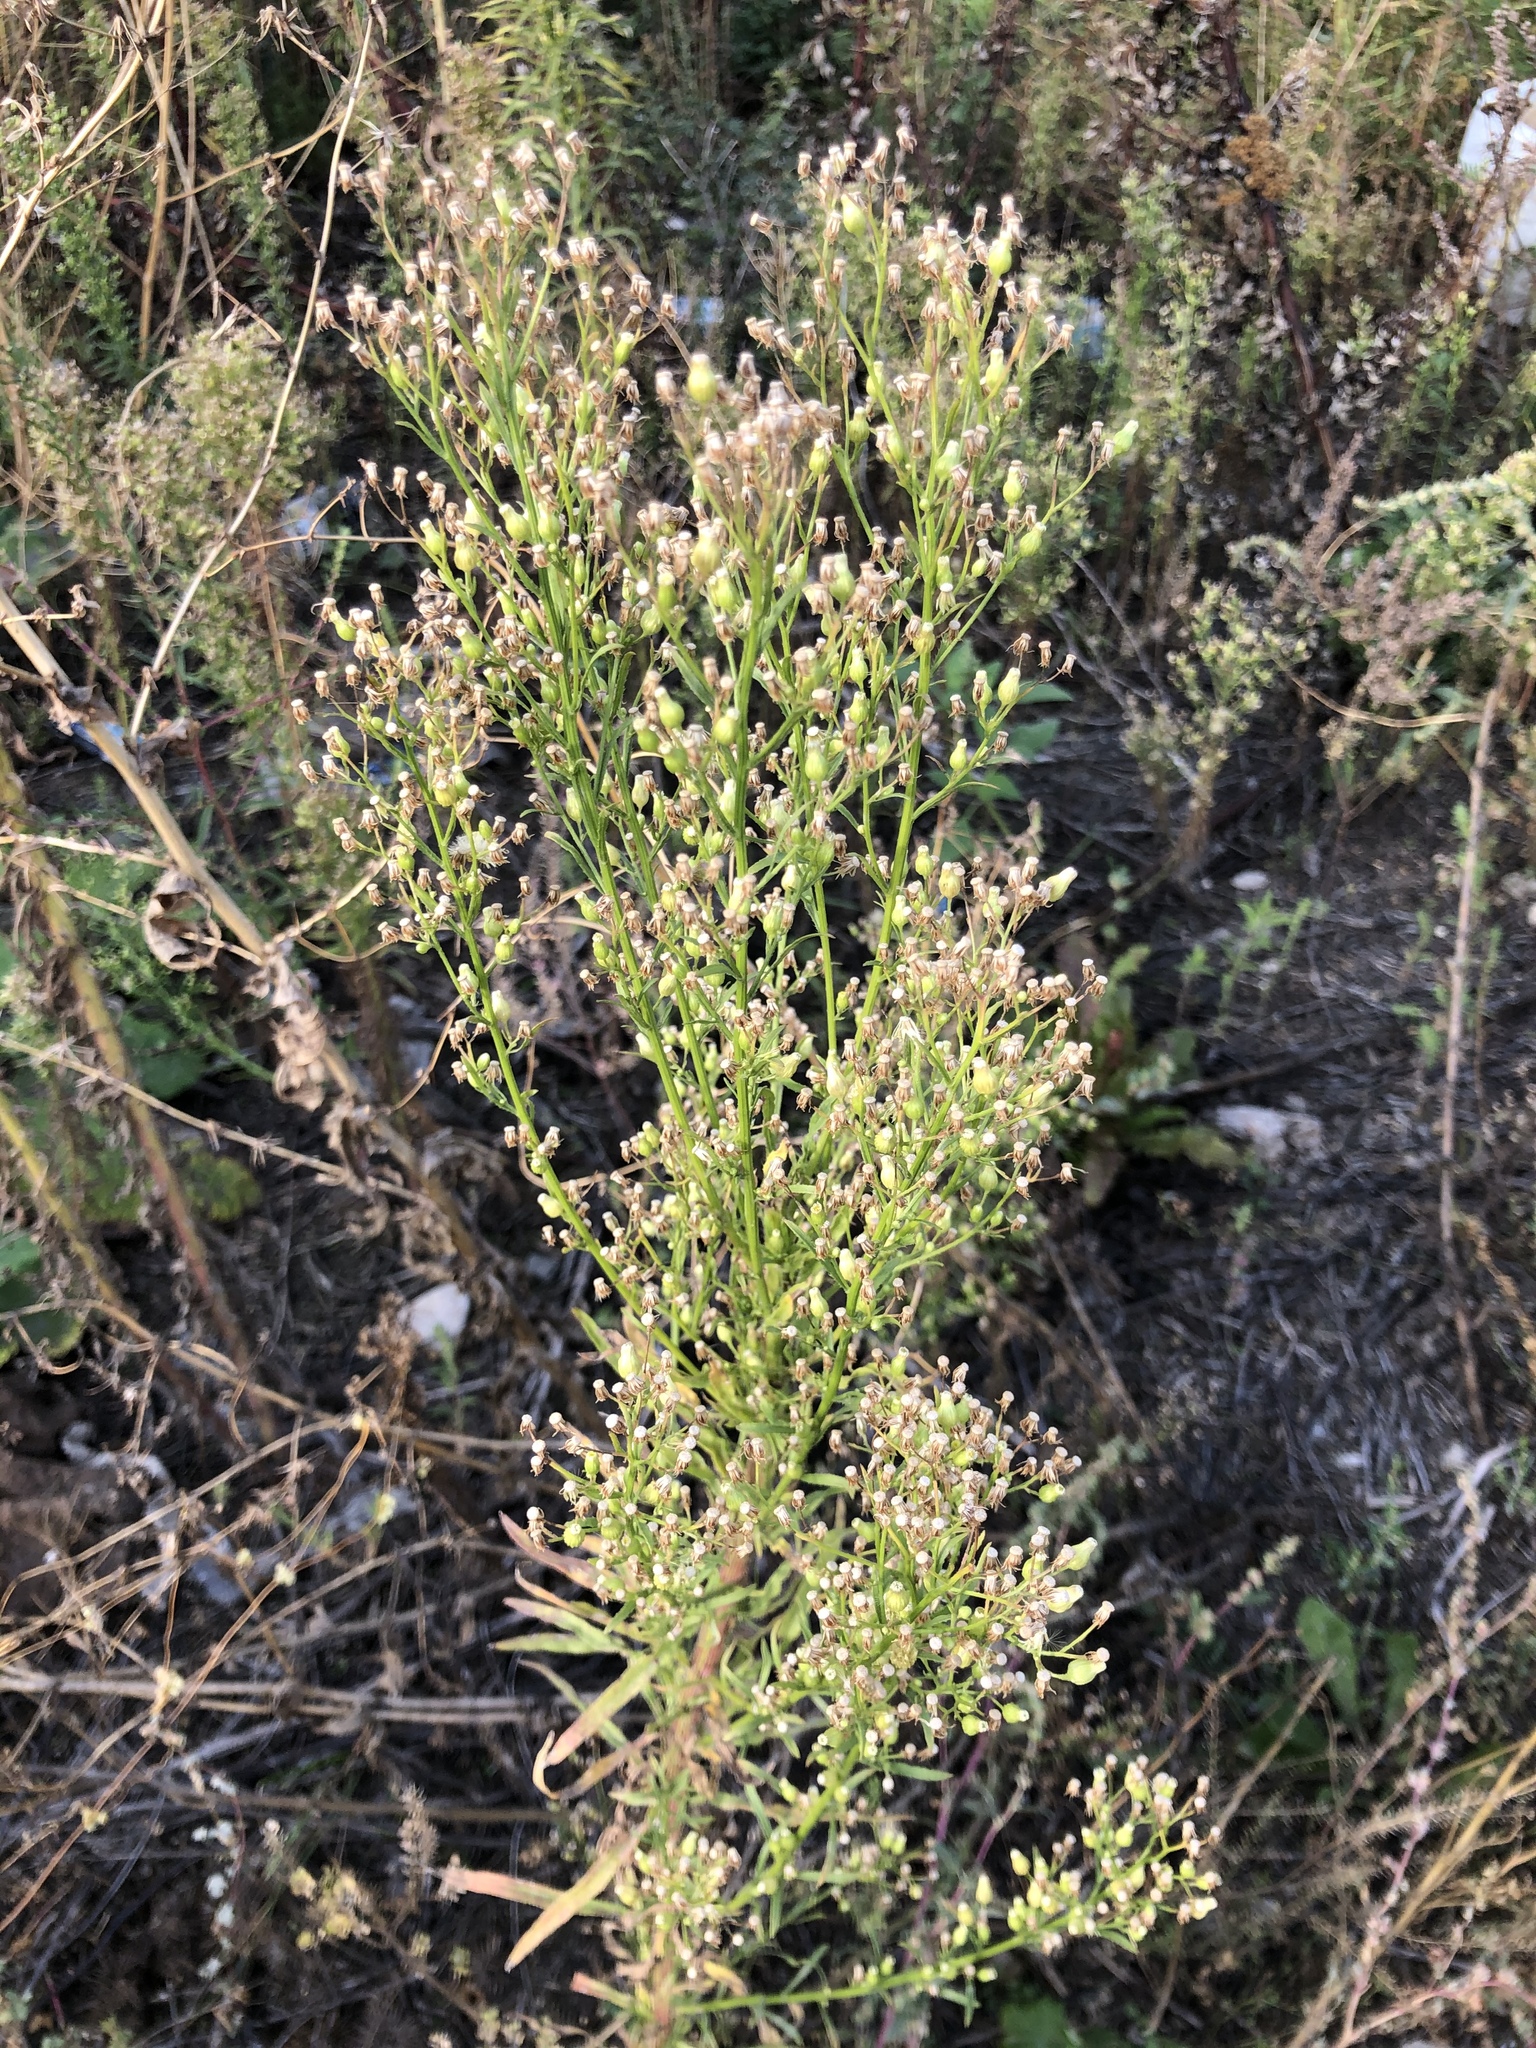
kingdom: Plantae
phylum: Tracheophyta
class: Magnoliopsida
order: Asterales
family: Asteraceae
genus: Erigeron
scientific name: Erigeron canadensis
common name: Canadian fleabane
